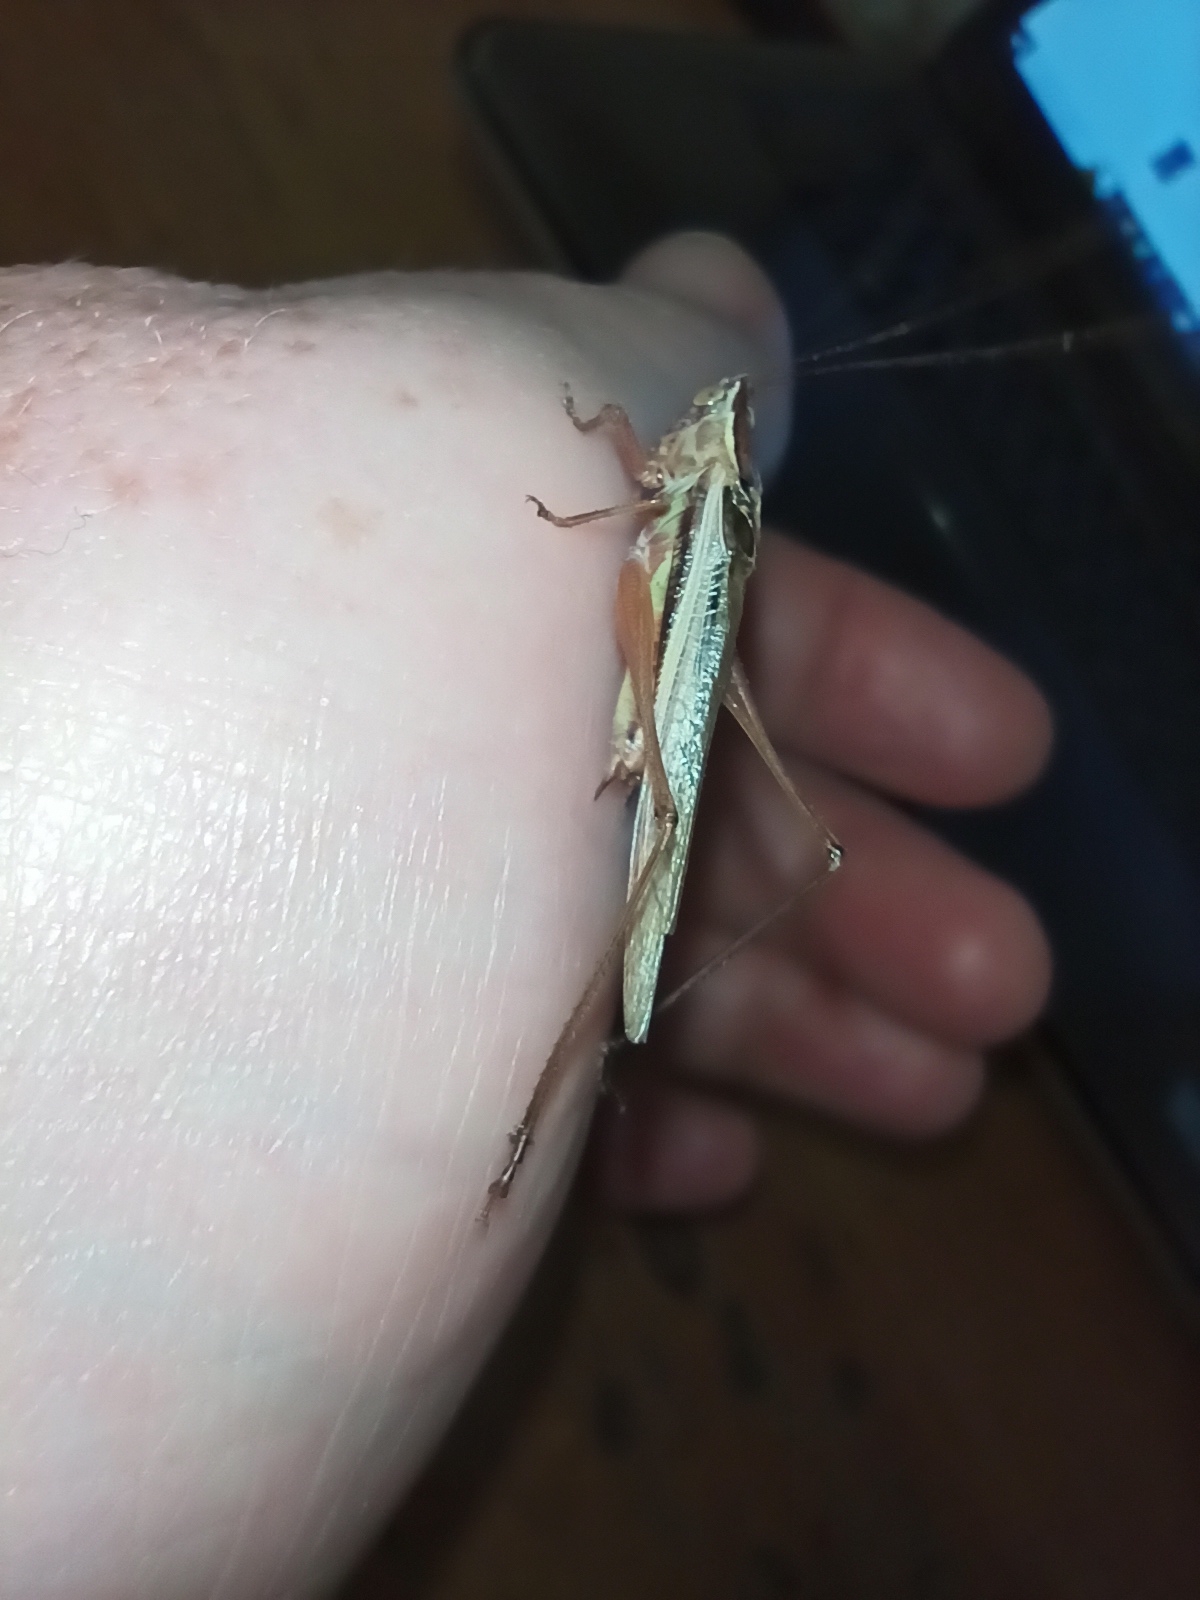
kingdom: Animalia
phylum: Arthropoda
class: Insecta
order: Orthoptera
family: Tettigoniidae
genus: Conocephalus
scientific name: Conocephalus albescens
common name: Whitish meadow katydid
